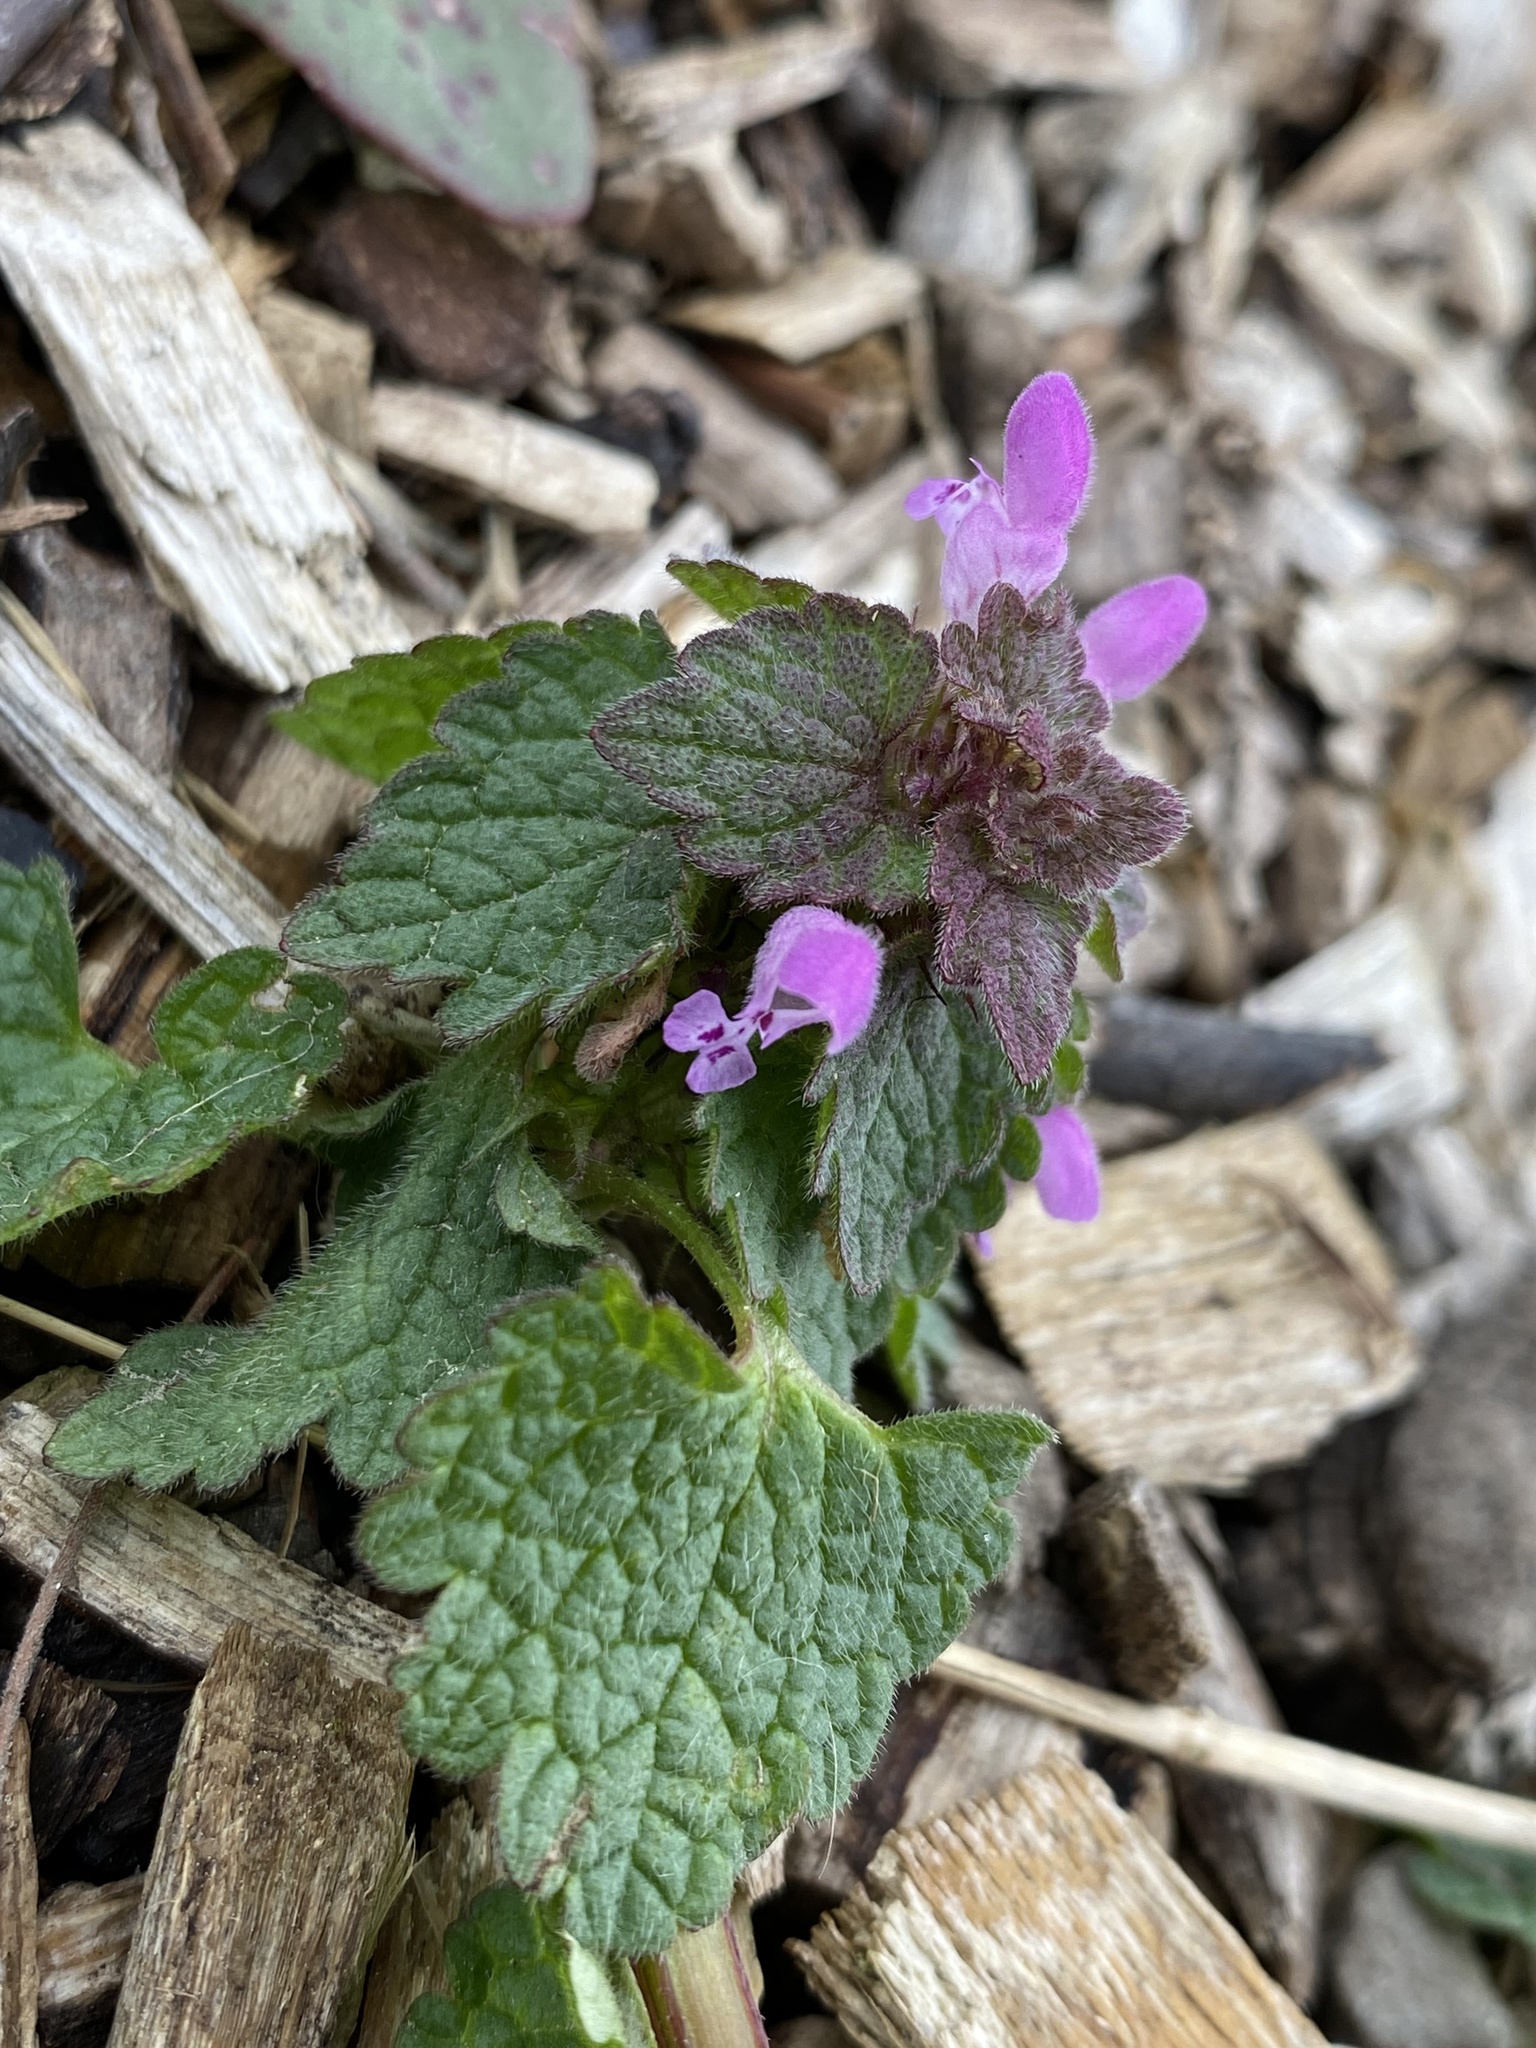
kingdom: Plantae
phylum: Tracheophyta
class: Magnoliopsida
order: Lamiales
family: Lamiaceae
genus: Lamium
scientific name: Lamium purpureum
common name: Red dead-nettle
